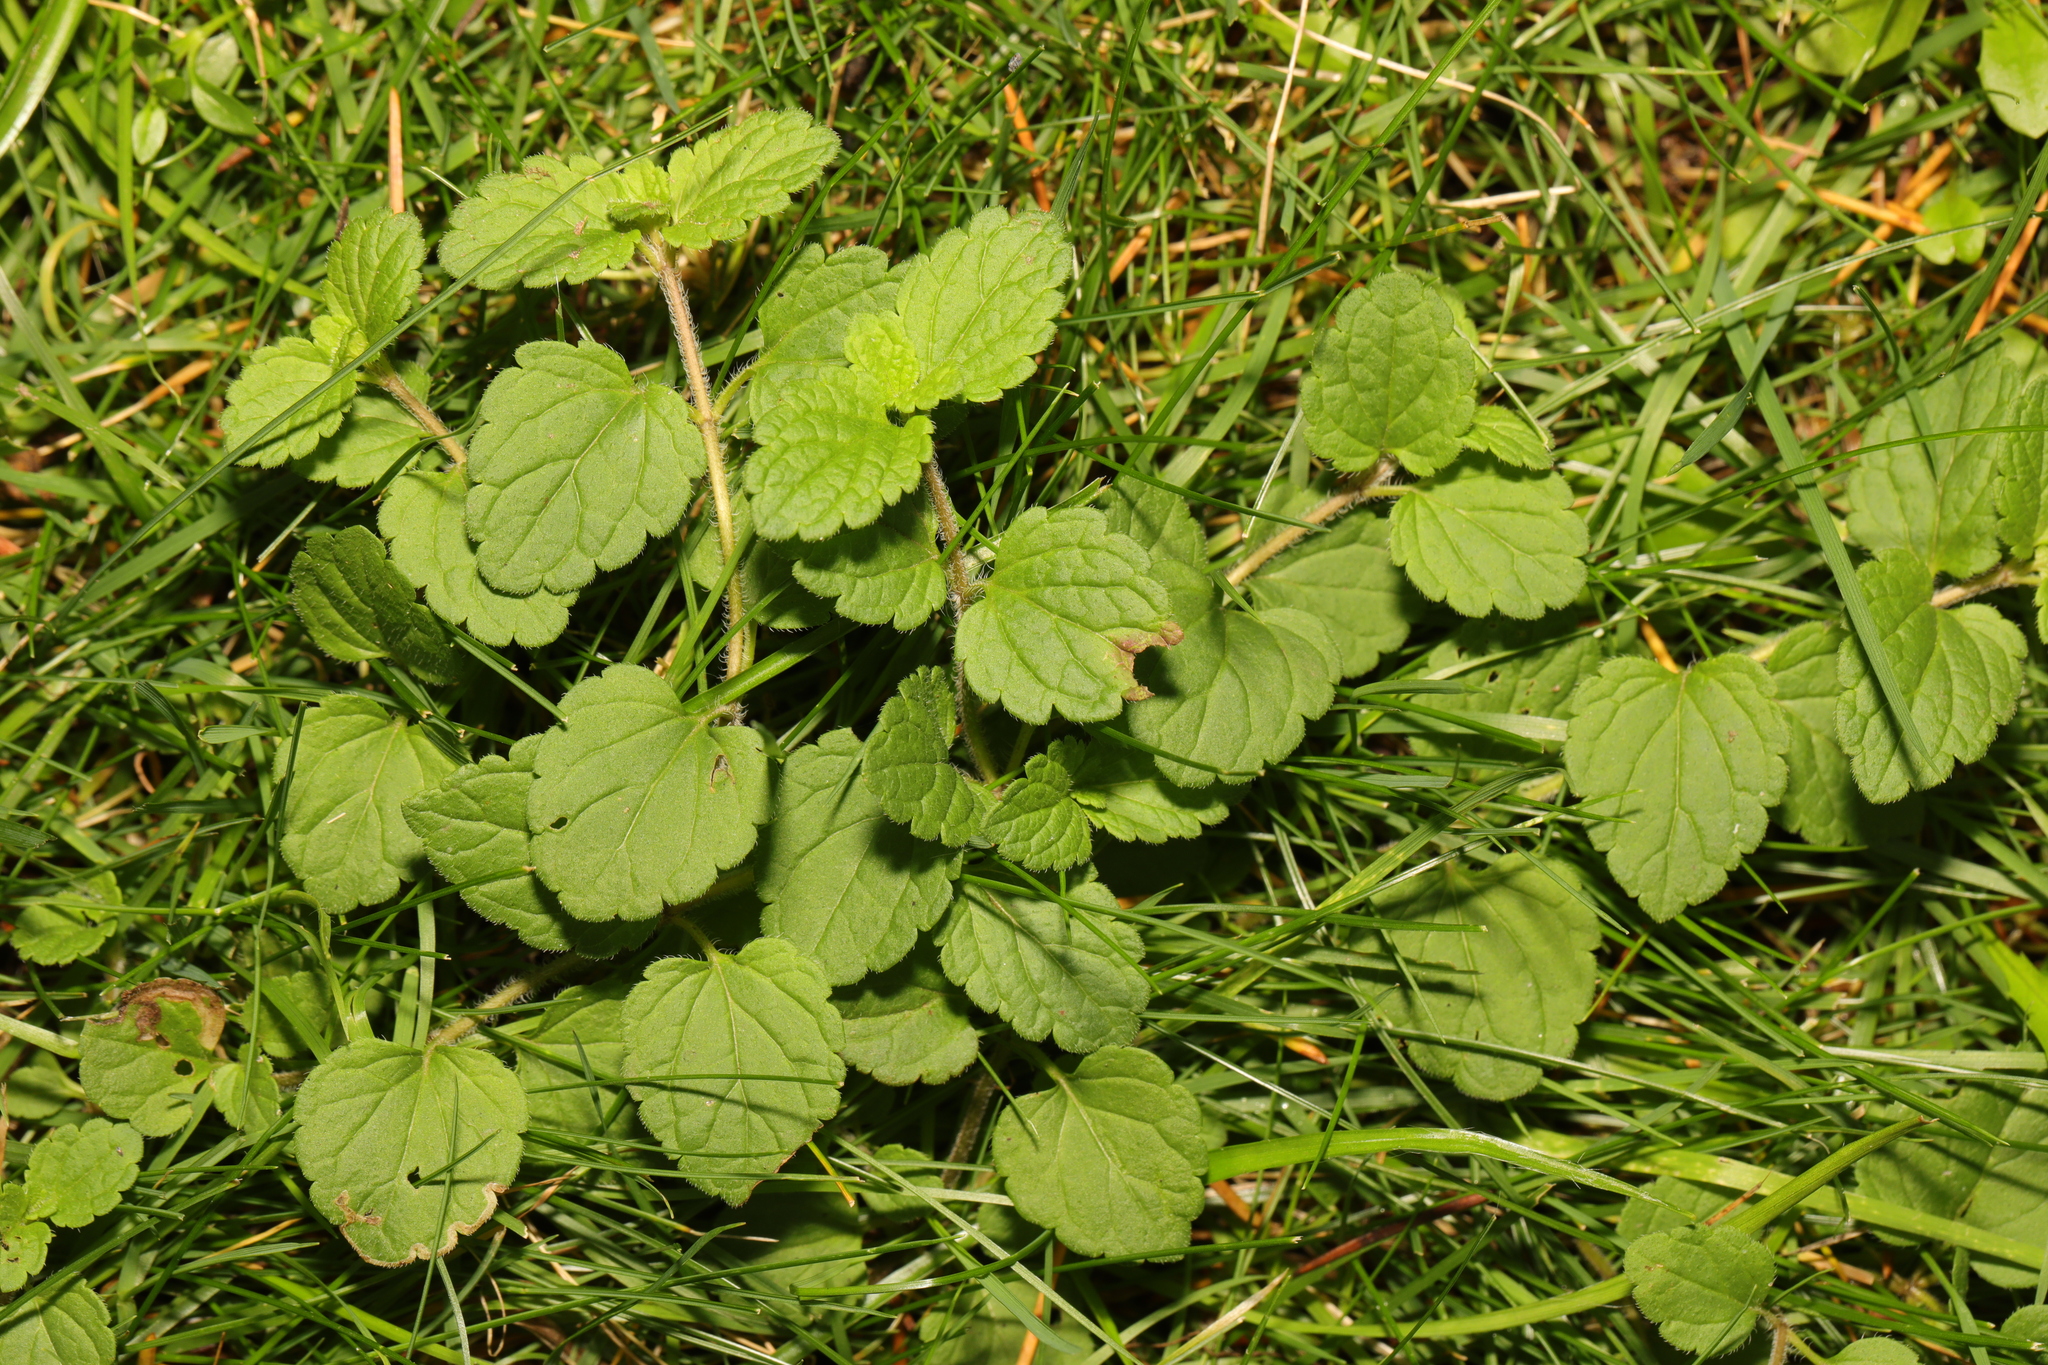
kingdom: Plantae
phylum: Tracheophyta
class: Magnoliopsida
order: Lamiales
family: Plantaginaceae
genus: Veronica
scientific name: Veronica chamaedrys
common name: Germander speedwell
